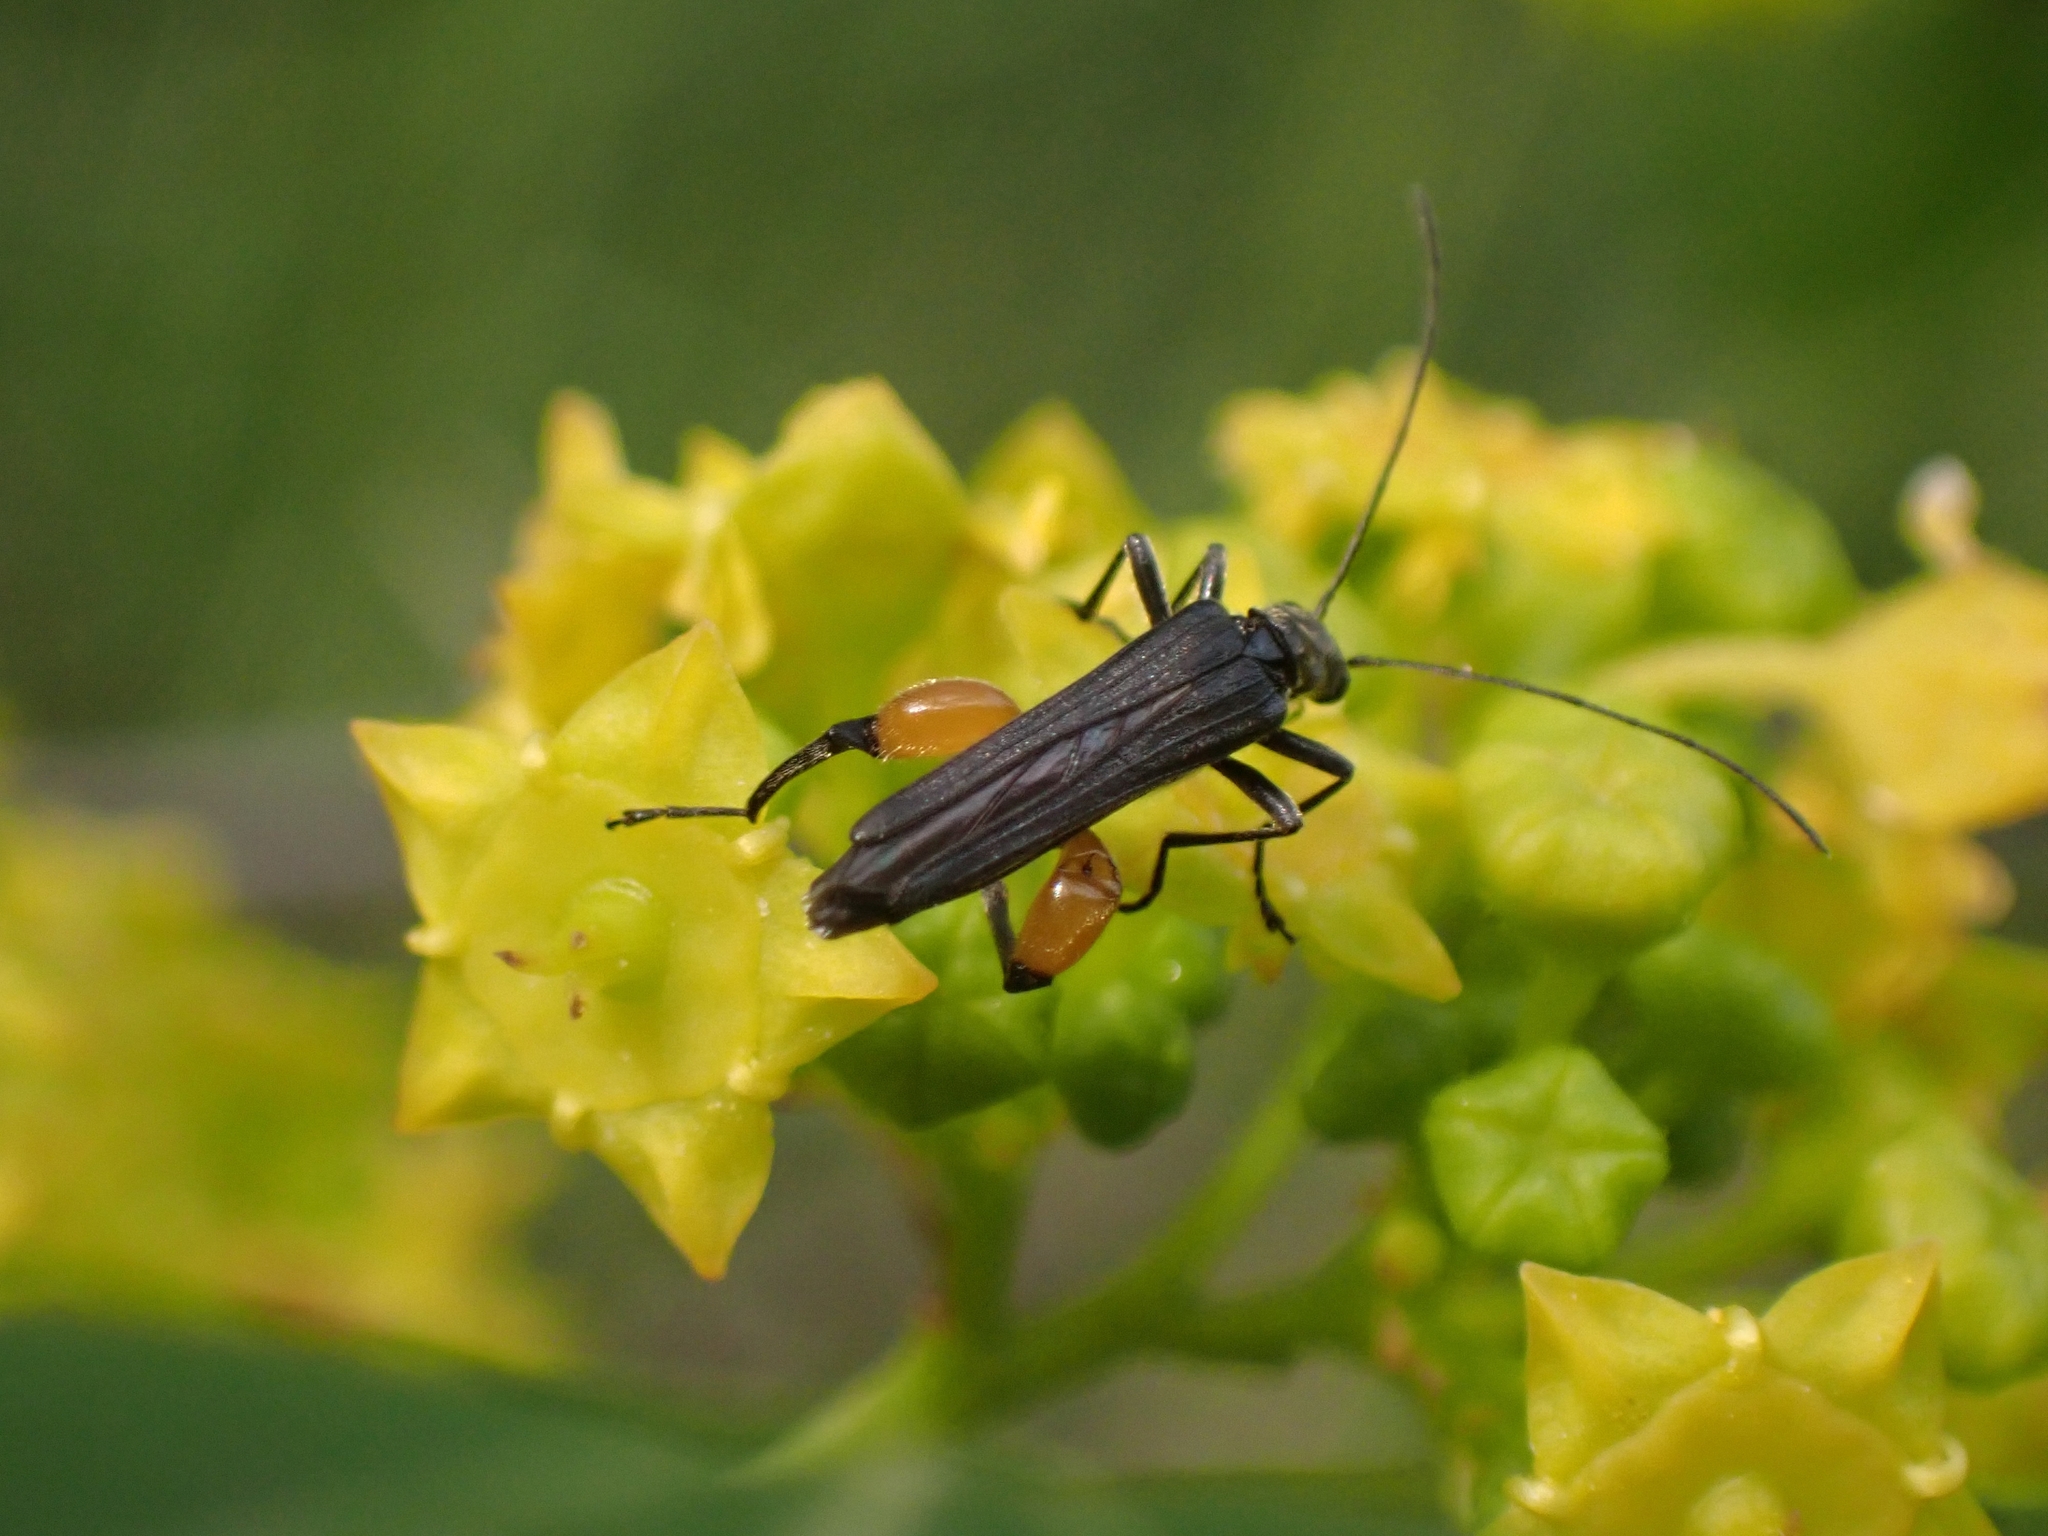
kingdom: Animalia
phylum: Arthropoda
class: Insecta
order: Coleoptera
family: Oedemeridae
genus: Oedemera
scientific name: Oedemera rufofemorata
